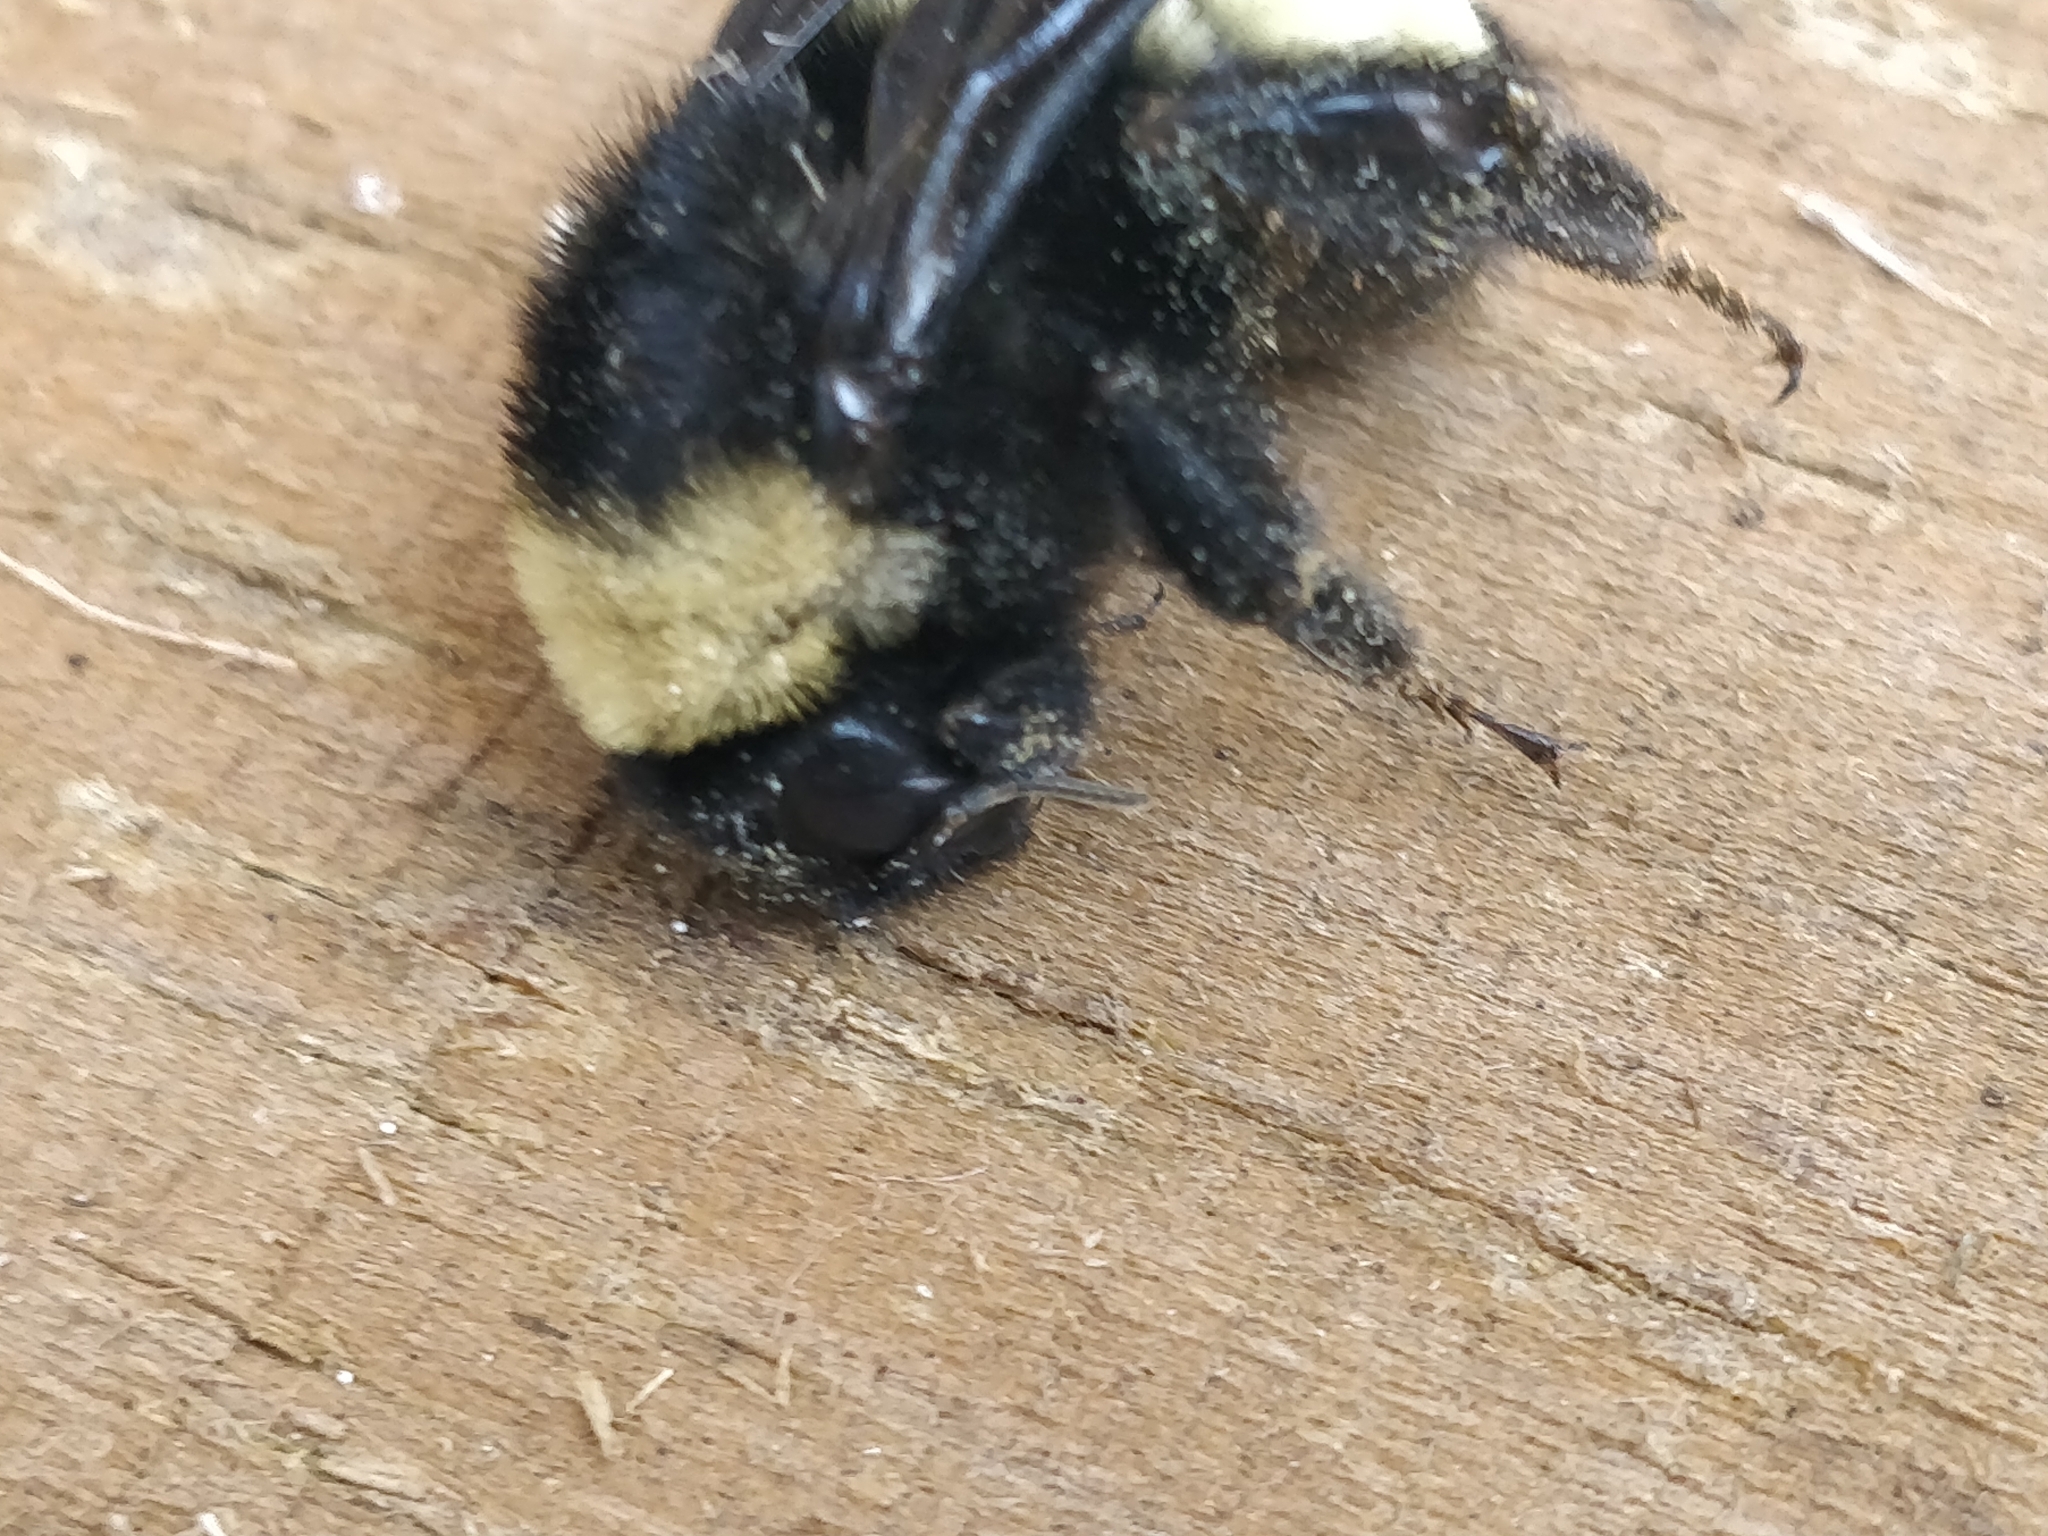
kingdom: Animalia
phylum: Arthropoda
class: Insecta
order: Hymenoptera
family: Apidae
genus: Bombus
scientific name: Bombus pensylvanicus
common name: Bumble bee
